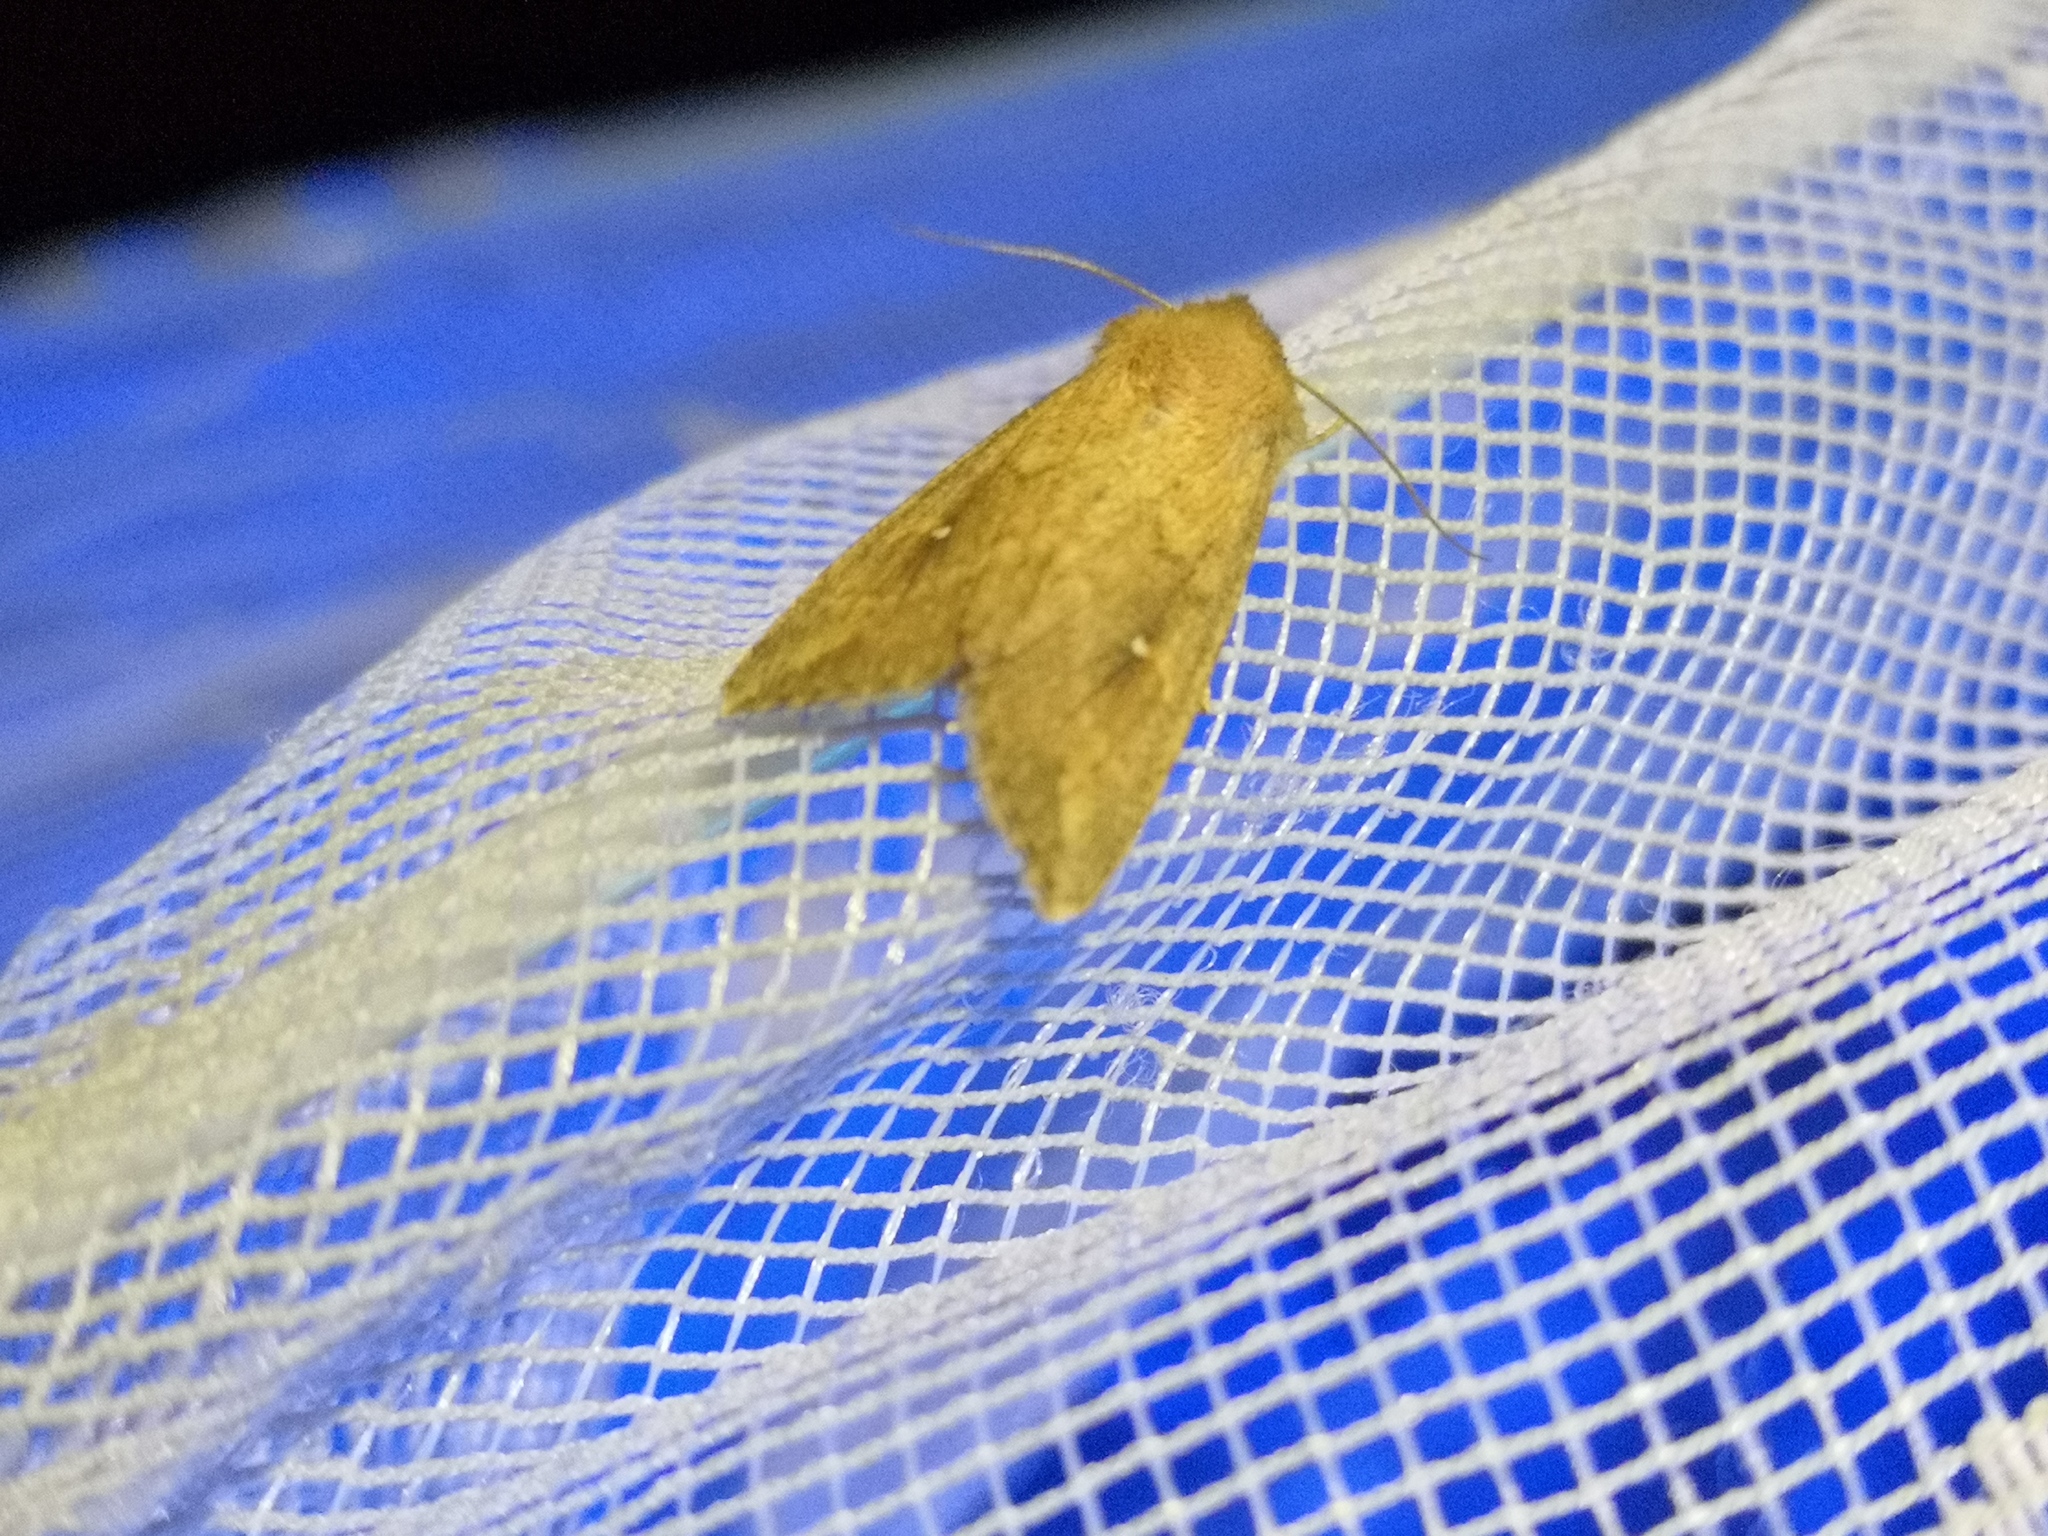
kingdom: Animalia
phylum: Arthropoda
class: Insecta
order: Lepidoptera
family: Noctuidae
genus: Mythimna
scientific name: Mythimna albipuncta
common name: White-point
